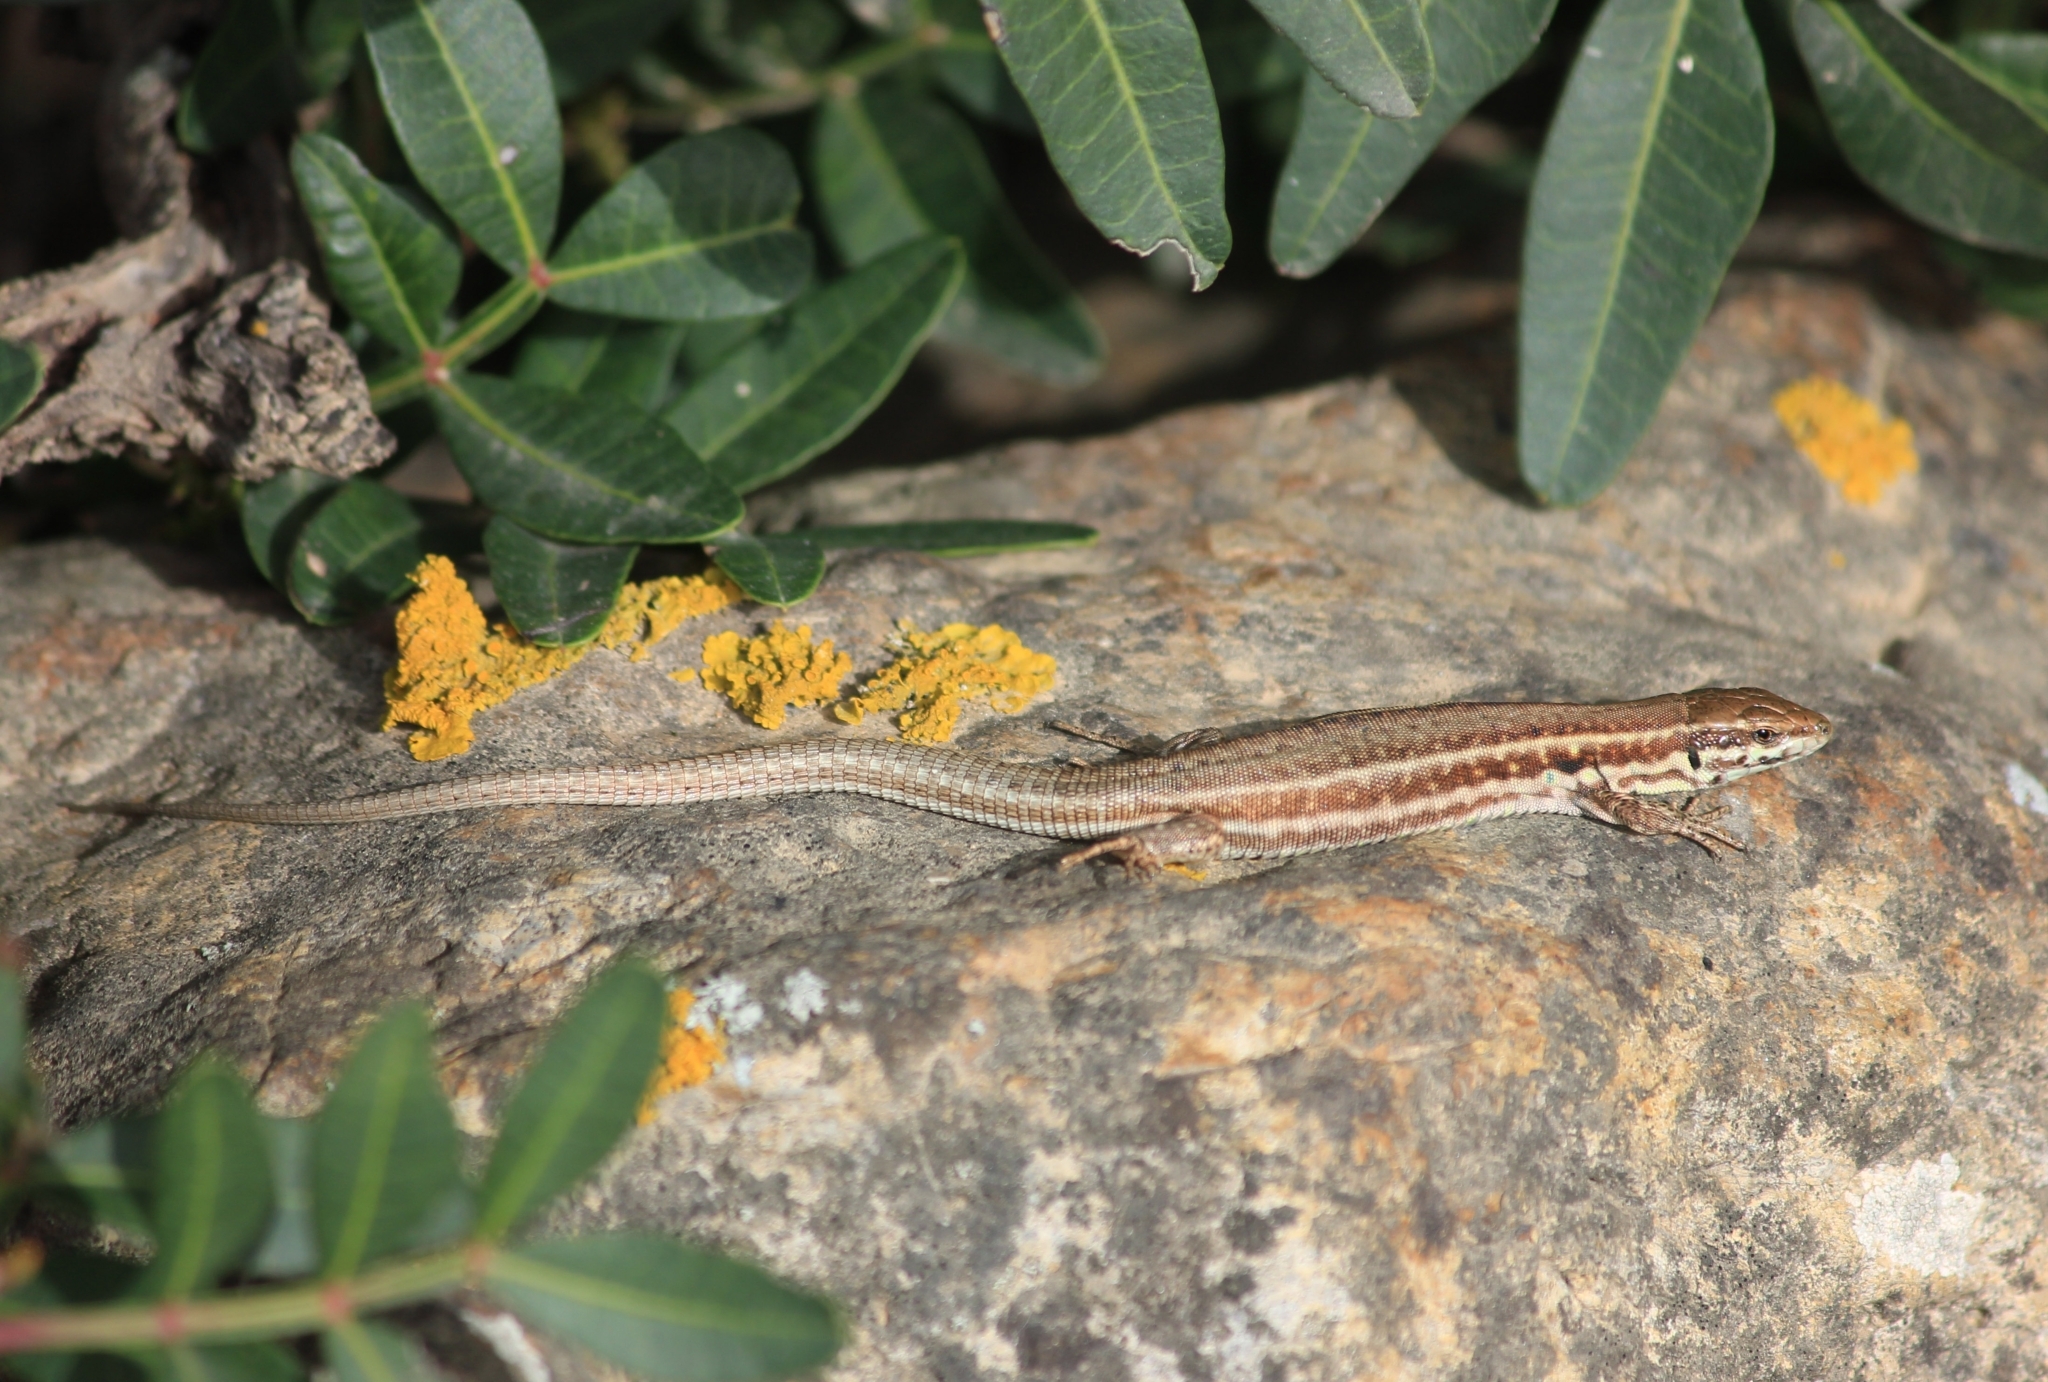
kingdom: Animalia
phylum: Chordata
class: Squamata
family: Lacertidae
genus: Podarcis
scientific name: Podarcis milensis
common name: Milos wall lizard
